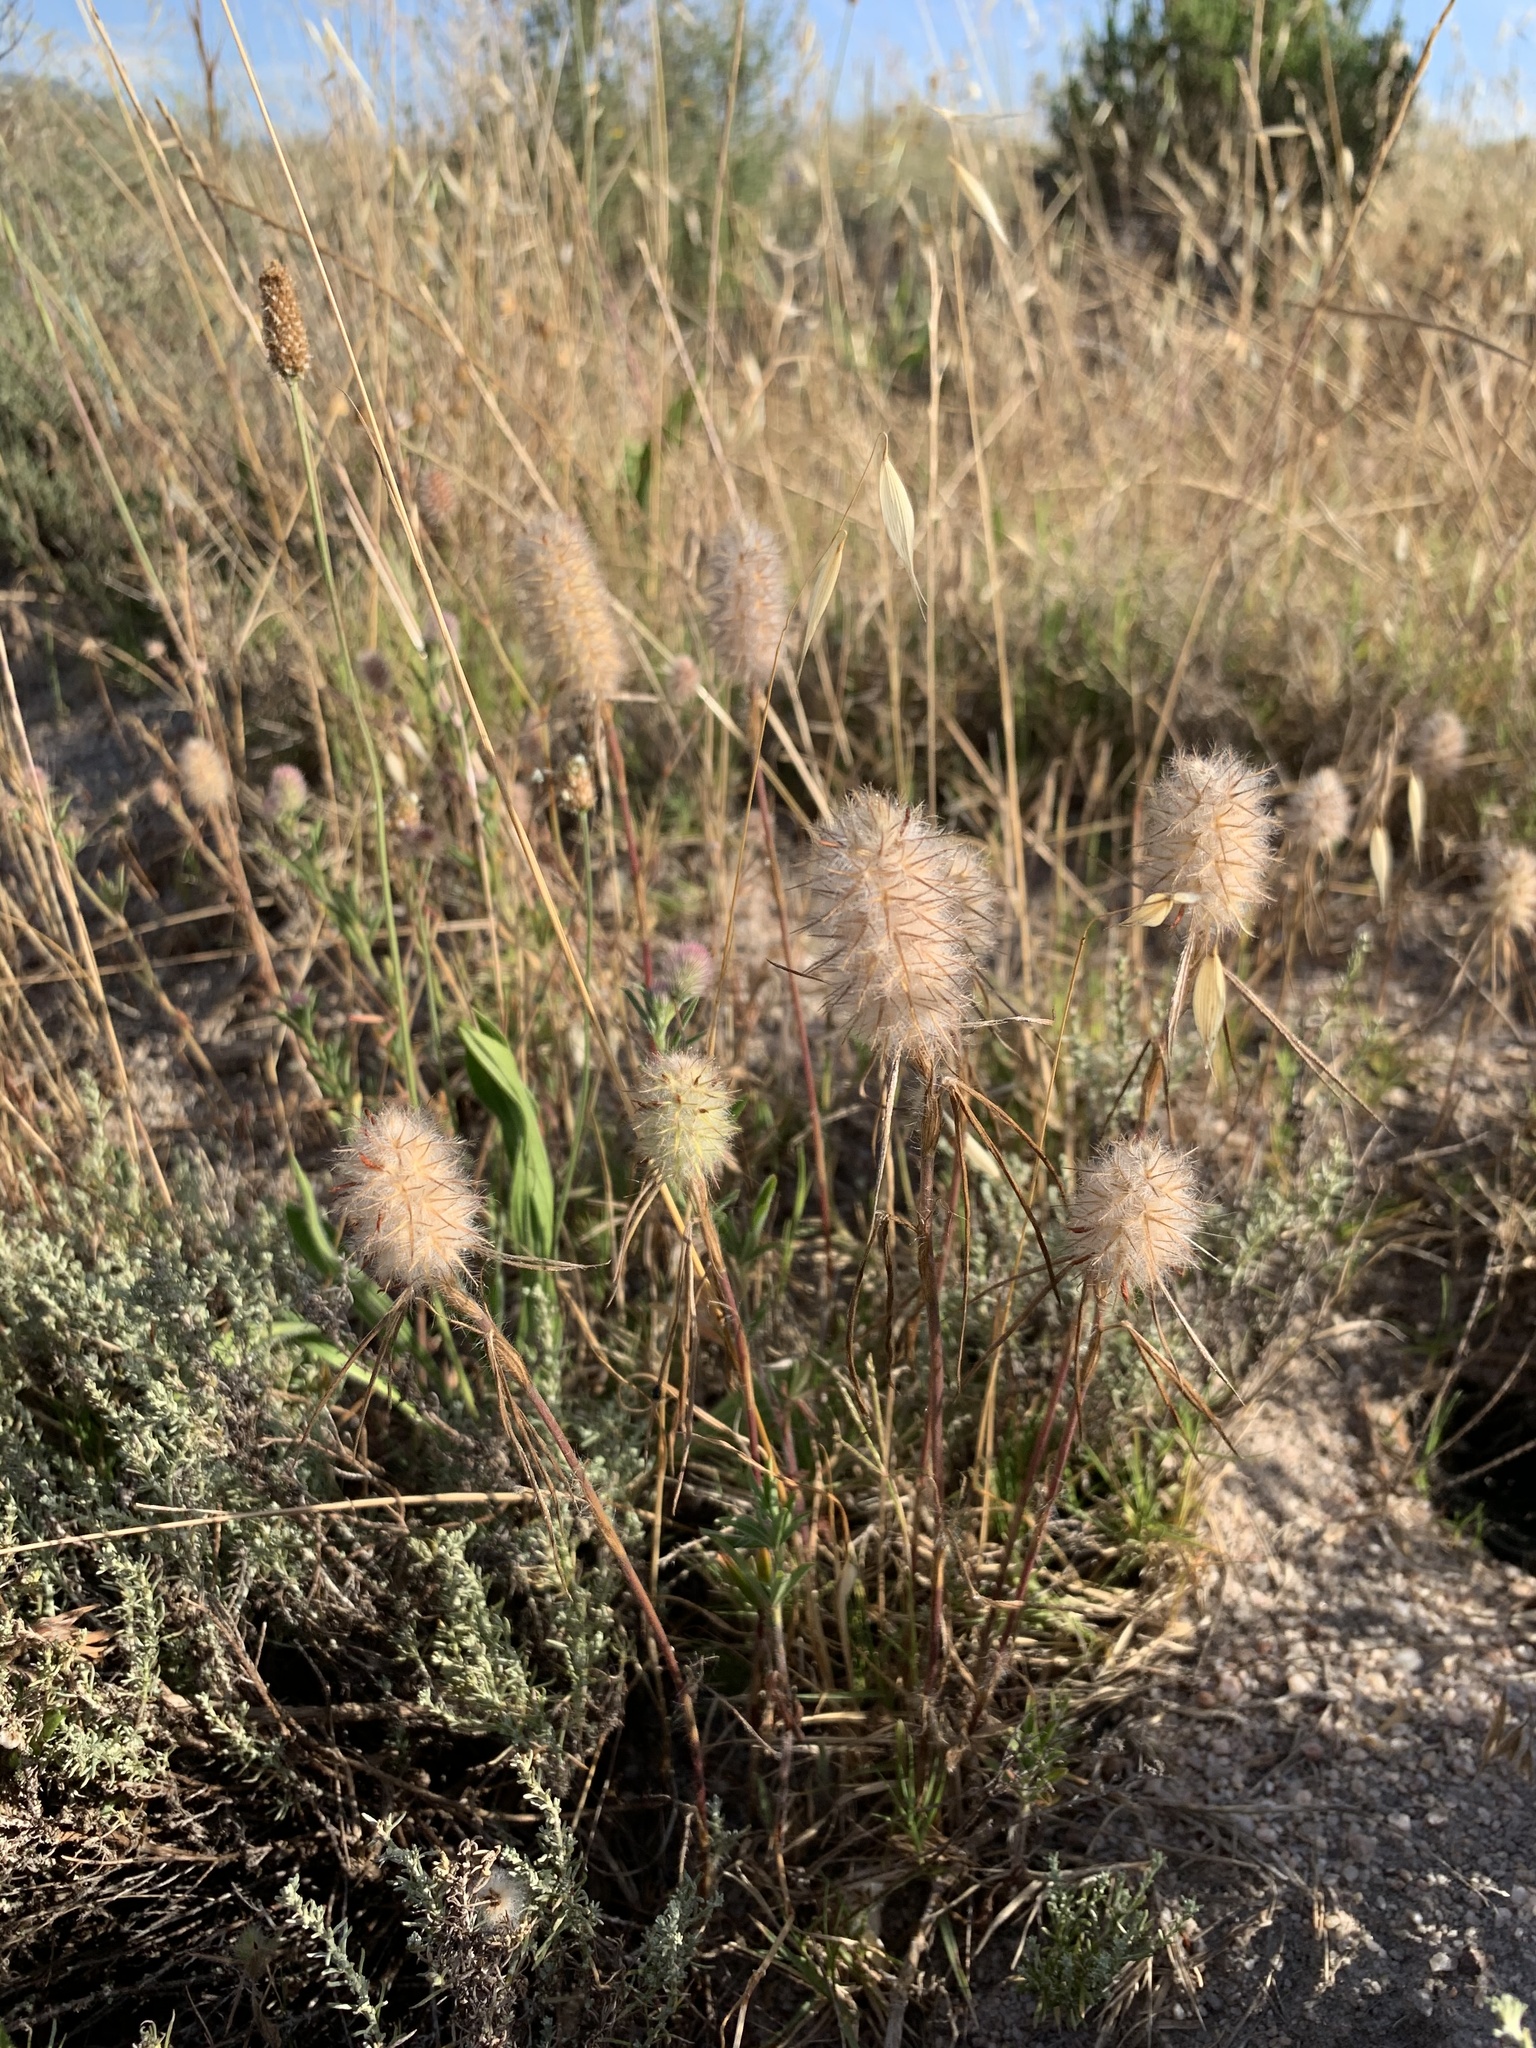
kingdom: Plantae
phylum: Tracheophyta
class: Magnoliopsida
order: Fabales
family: Fabaceae
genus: Trifolium
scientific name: Trifolium angustifolium
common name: Narrow clover
